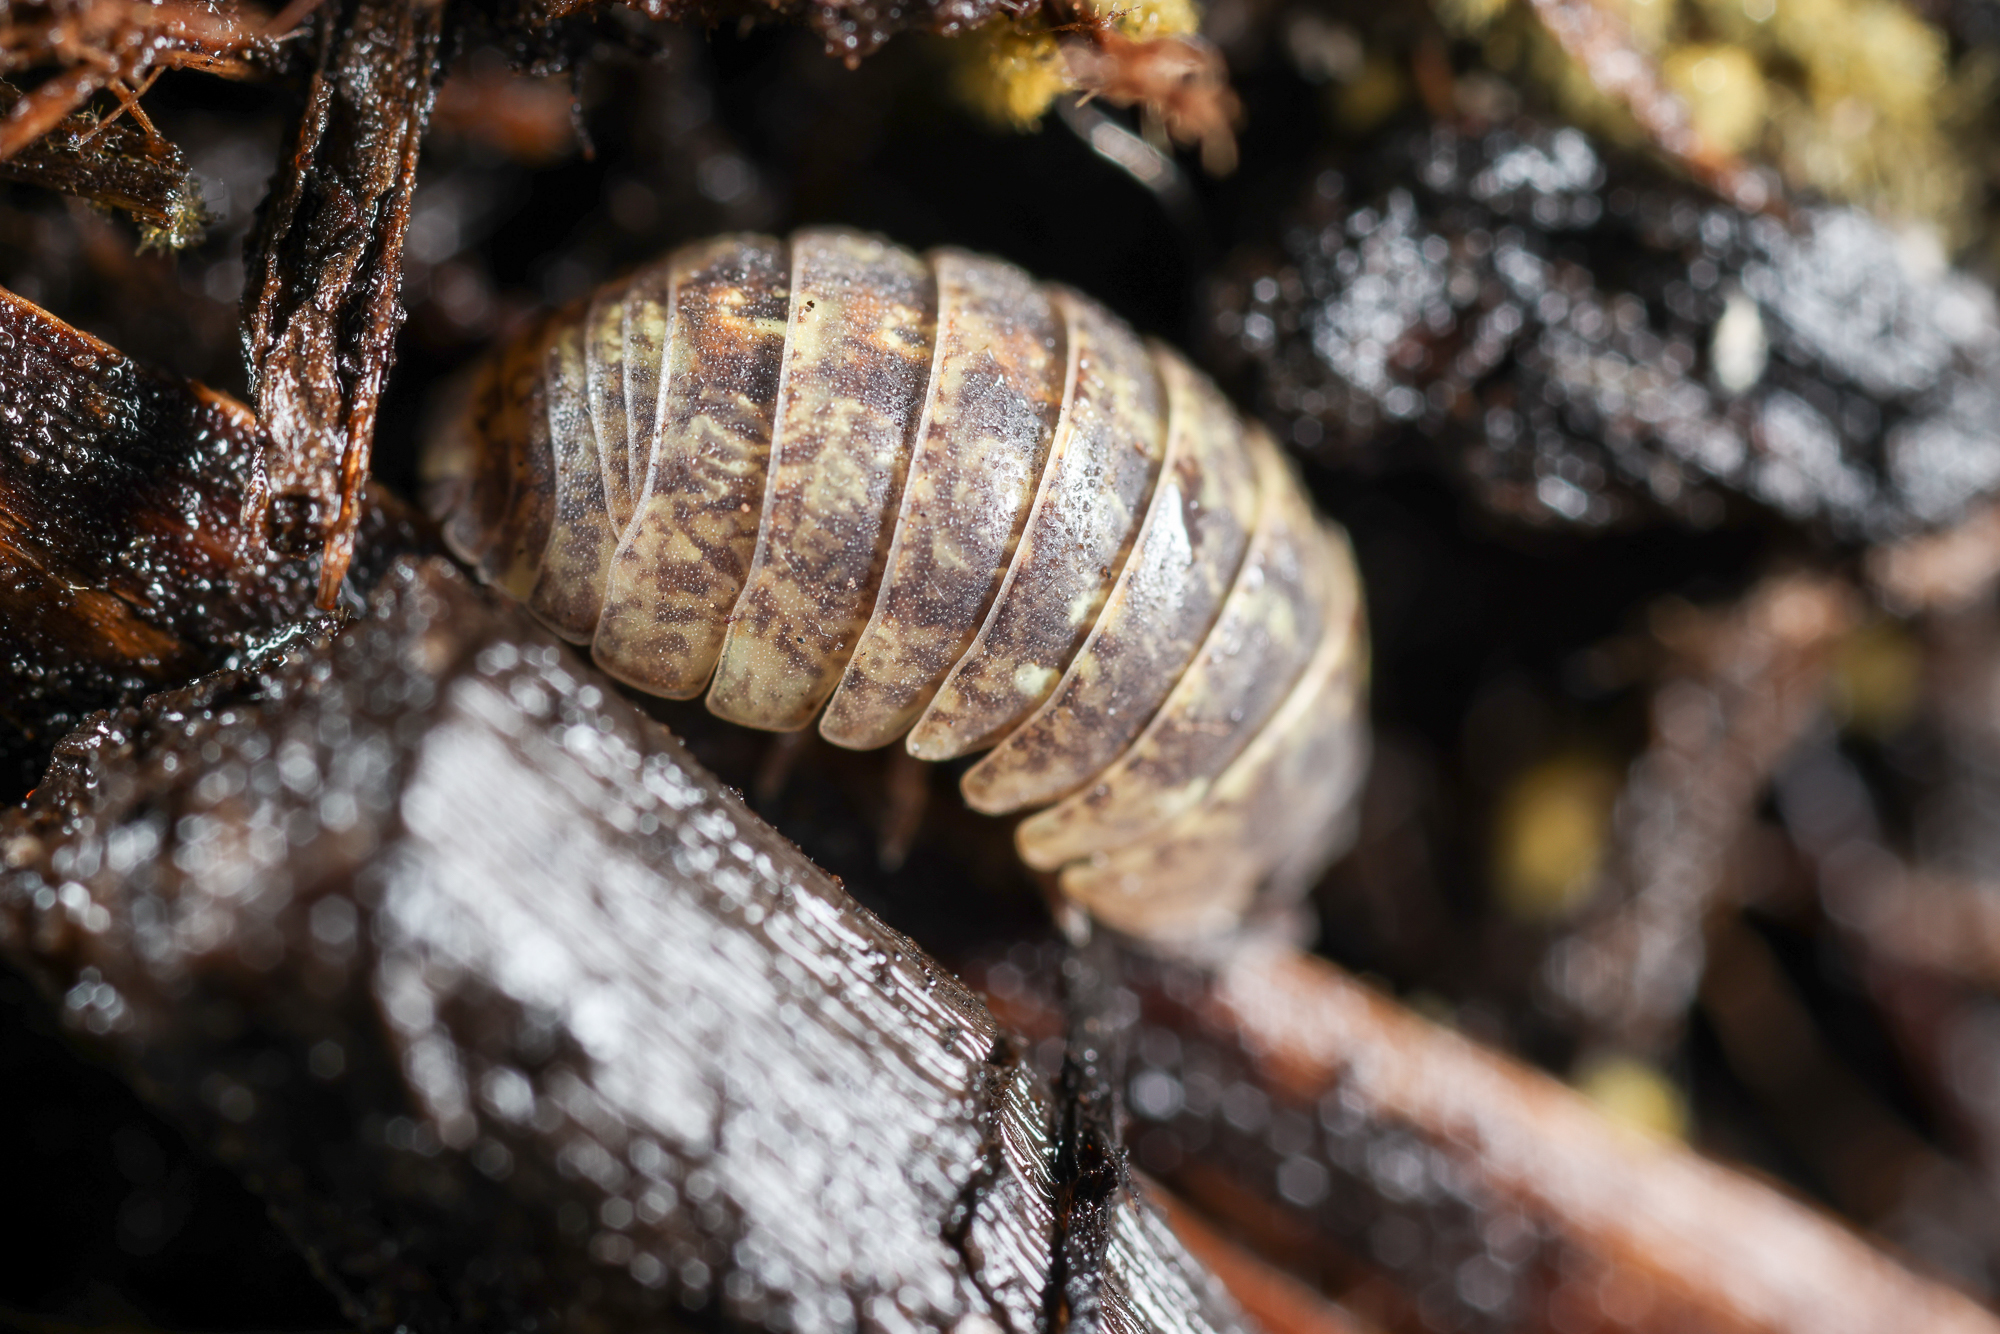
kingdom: Animalia
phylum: Arthropoda
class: Malacostraca
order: Isopoda
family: Armadillidiidae
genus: Armadillidium
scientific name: Armadillidium vulgare
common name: Common pill woodlouse
